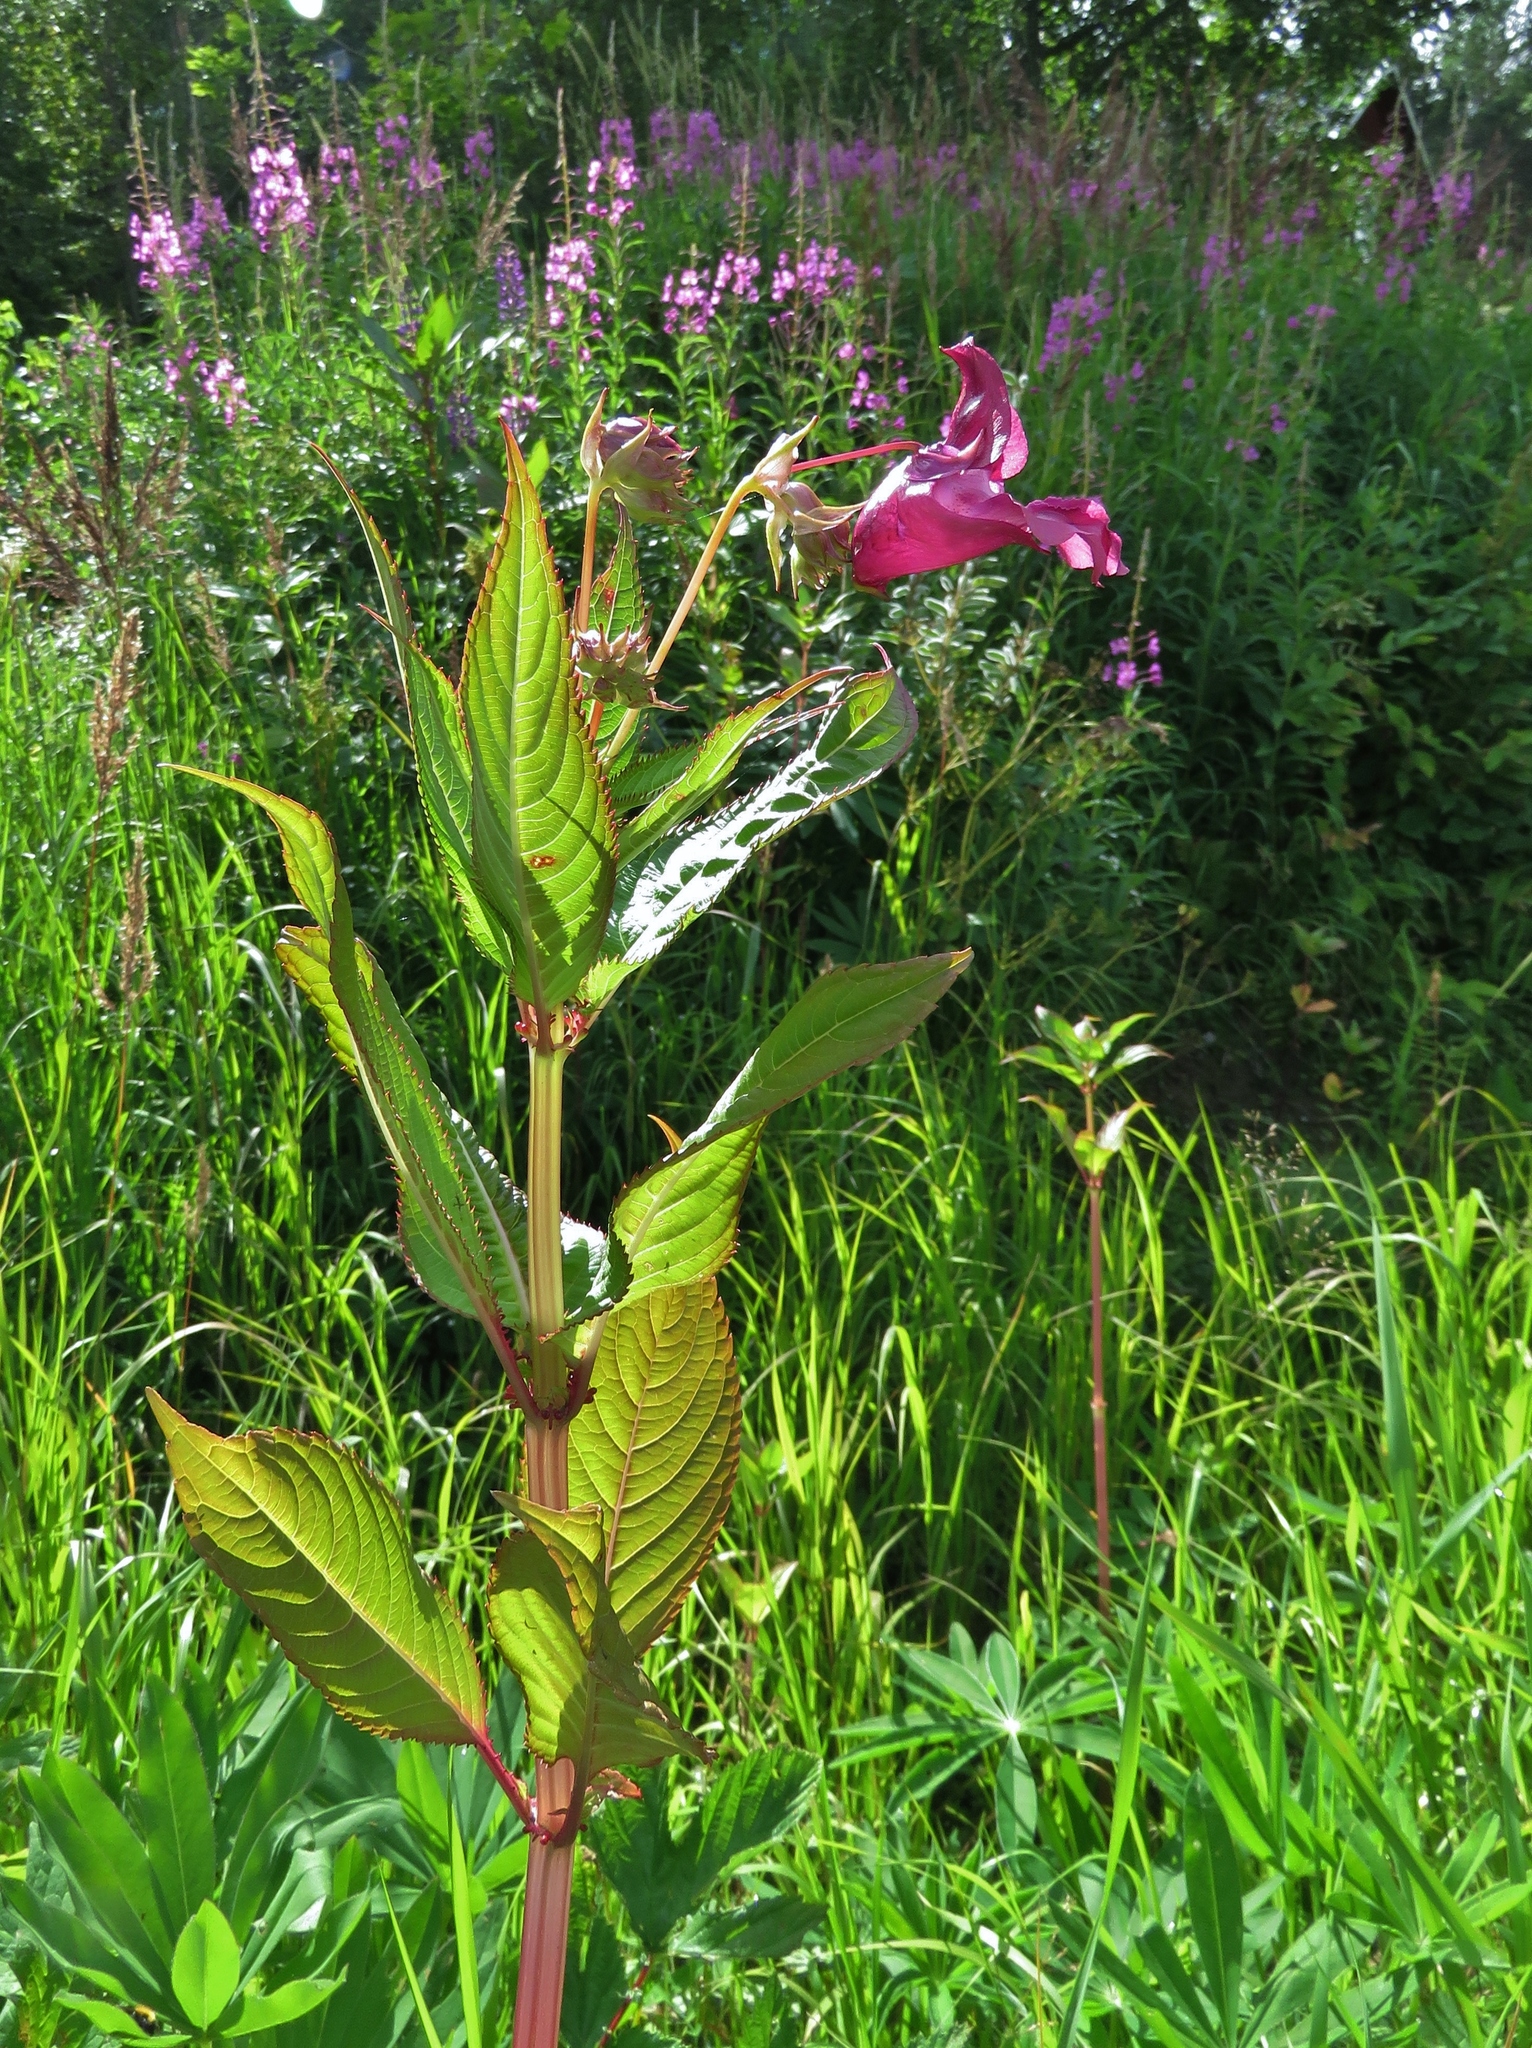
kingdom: Plantae
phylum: Tracheophyta
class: Magnoliopsida
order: Ericales
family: Balsaminaceae
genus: Impatiens
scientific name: Impatiens glandulifera
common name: Himalayan balsam
